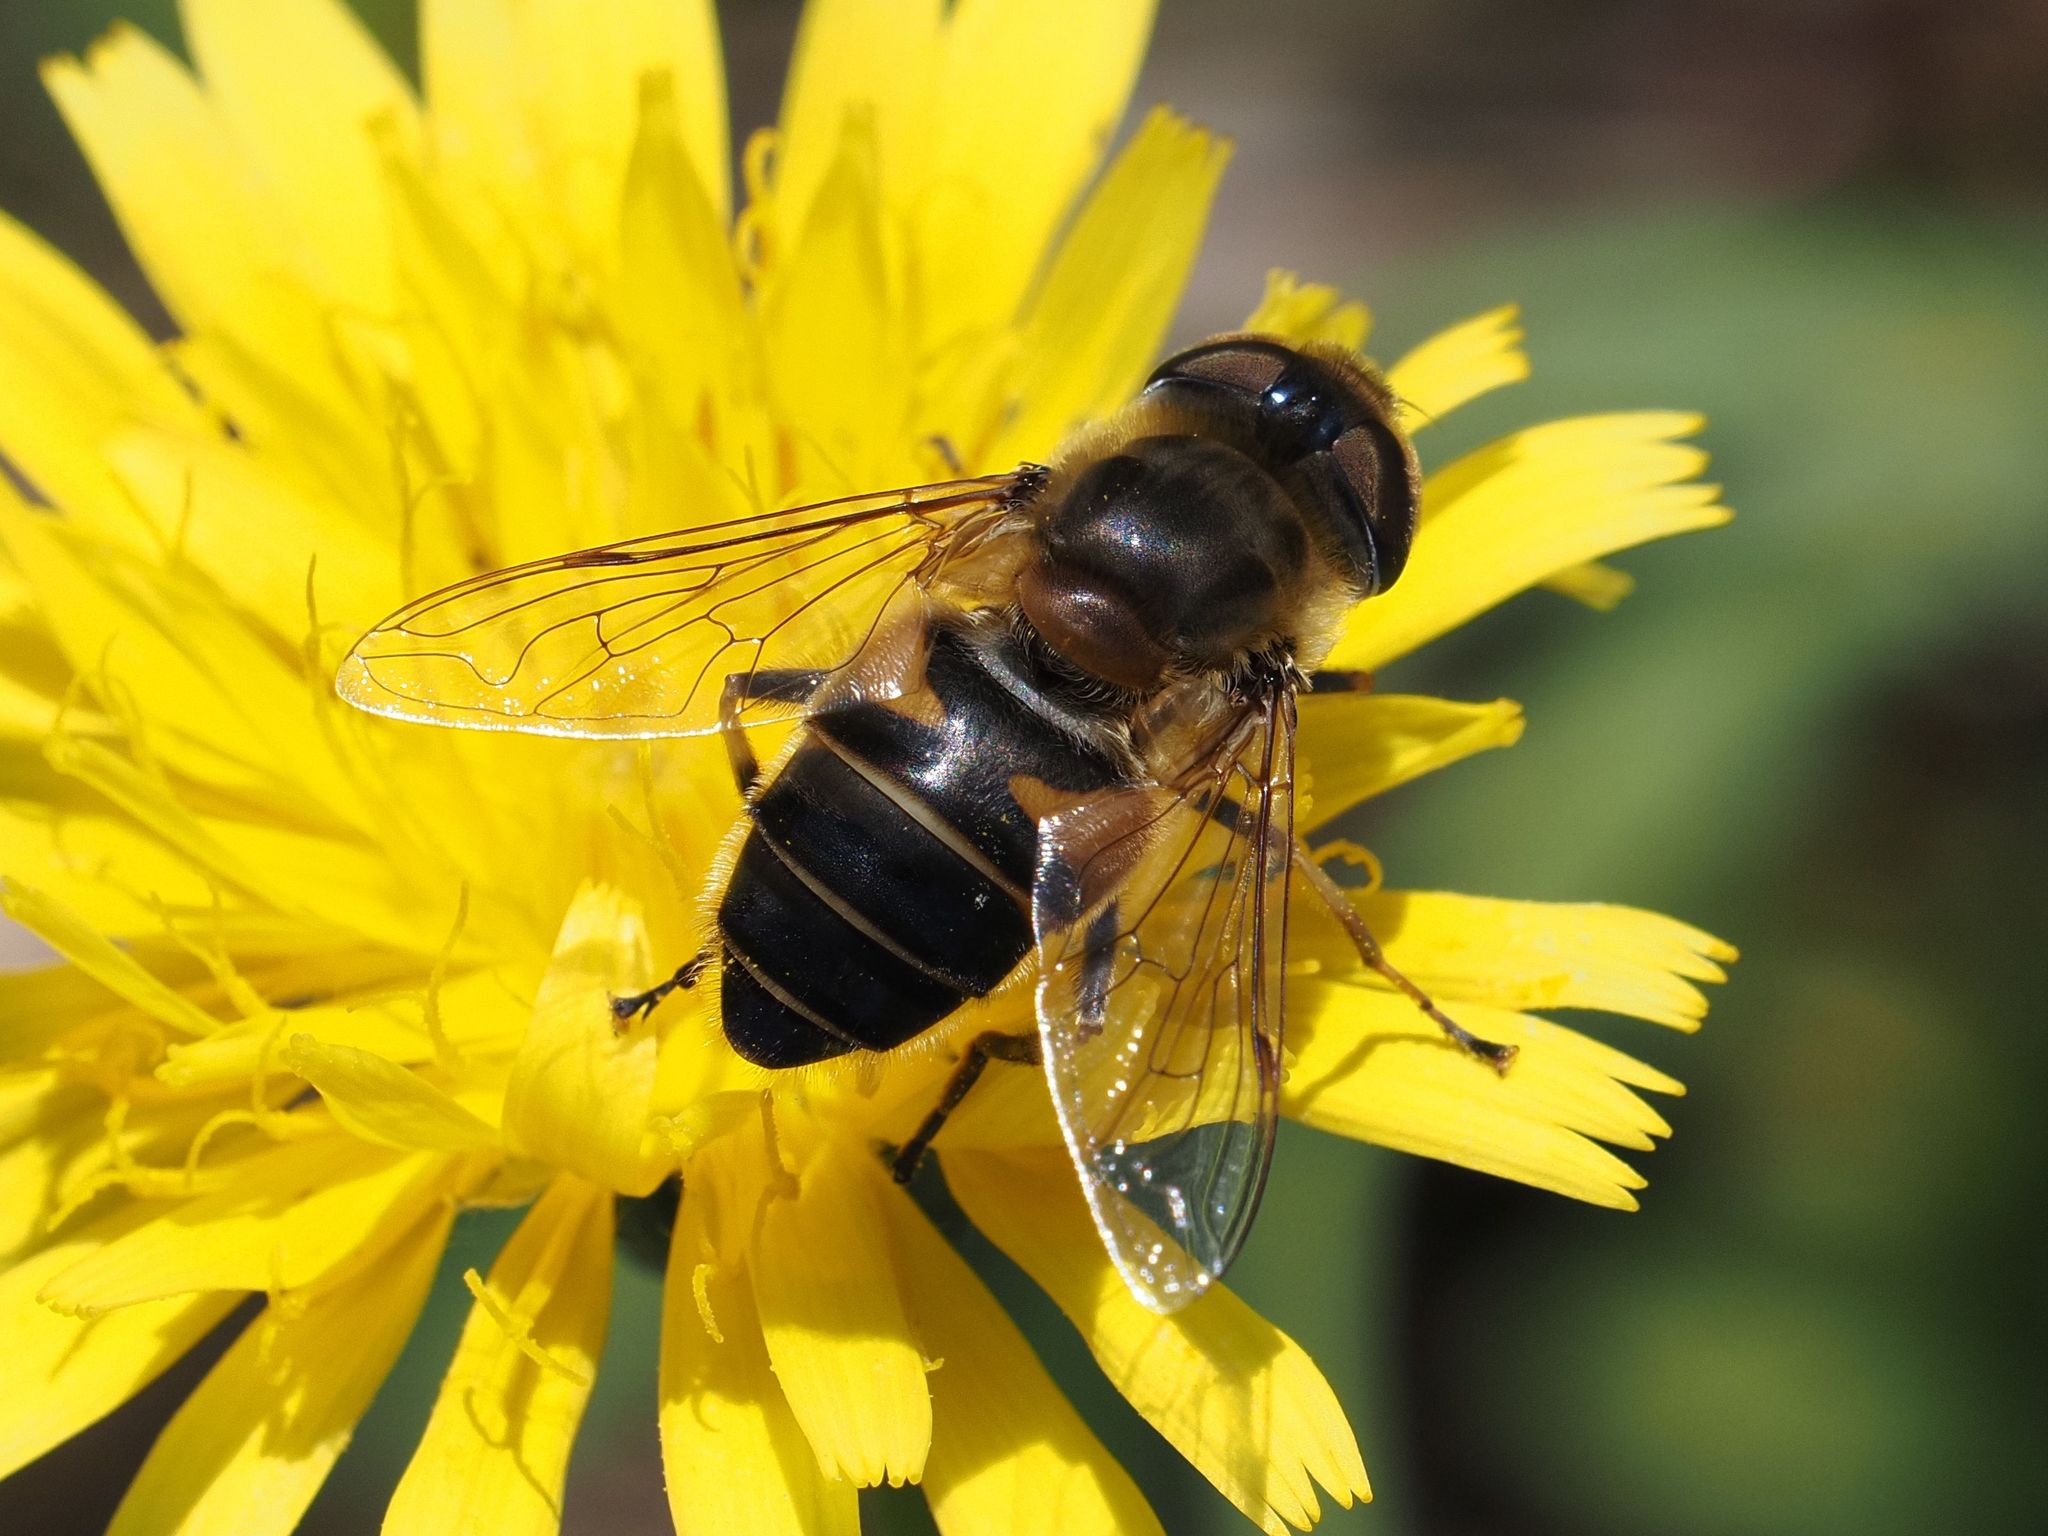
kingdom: Animalia
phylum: Arthropoda
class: Insecta
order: Diptera
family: Syrphidae
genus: Eristalis
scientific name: Eristalis pertinax
